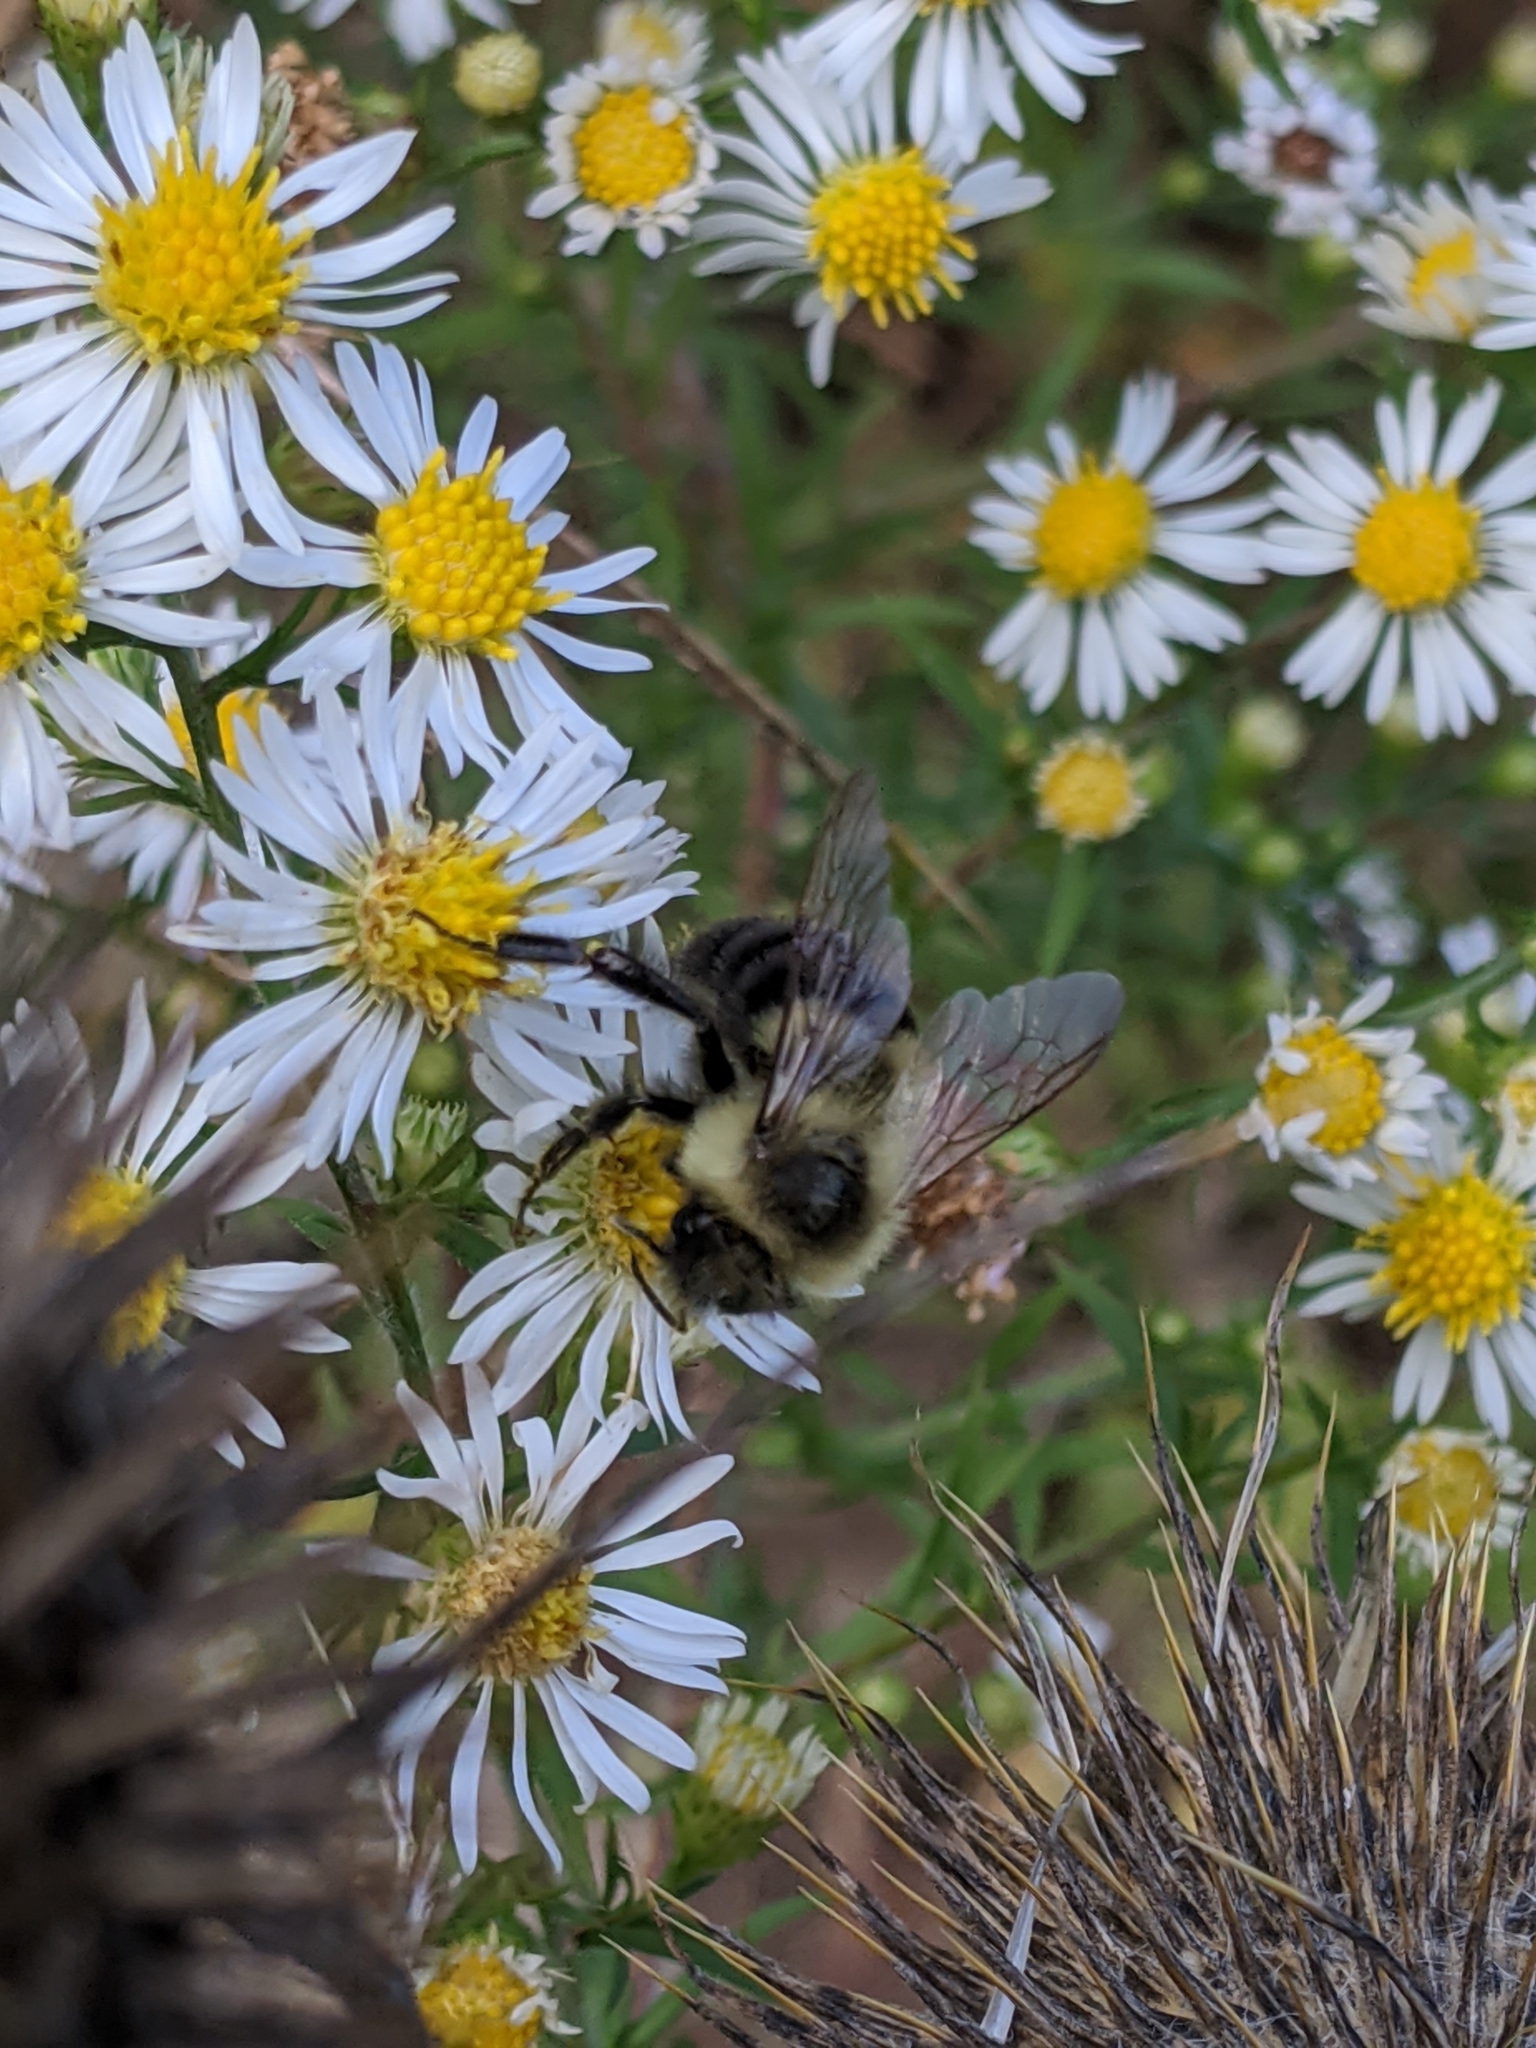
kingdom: Animalia
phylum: Arthropoda
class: Insecta
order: Hymenoptera
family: Apidae
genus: Bombus
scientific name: Bombus impatiens
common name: Common eastern bumble bee
